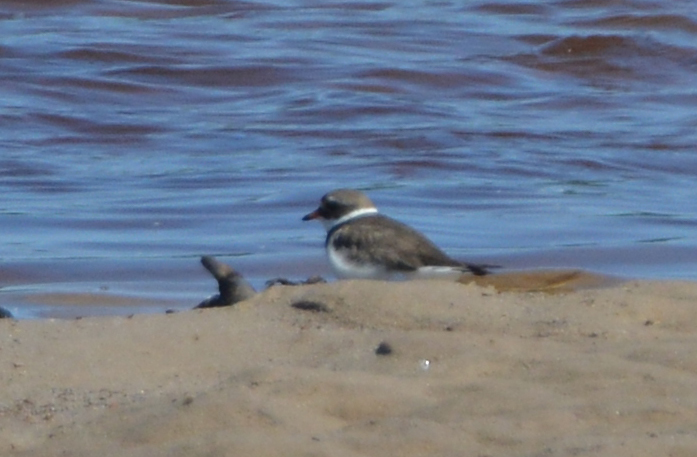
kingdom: Animalia
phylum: Chordata
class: Aves
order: Charadriiformes
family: Charadriidae
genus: Charadrius
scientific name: Charadrius hiaticula
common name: Common ringed plover
